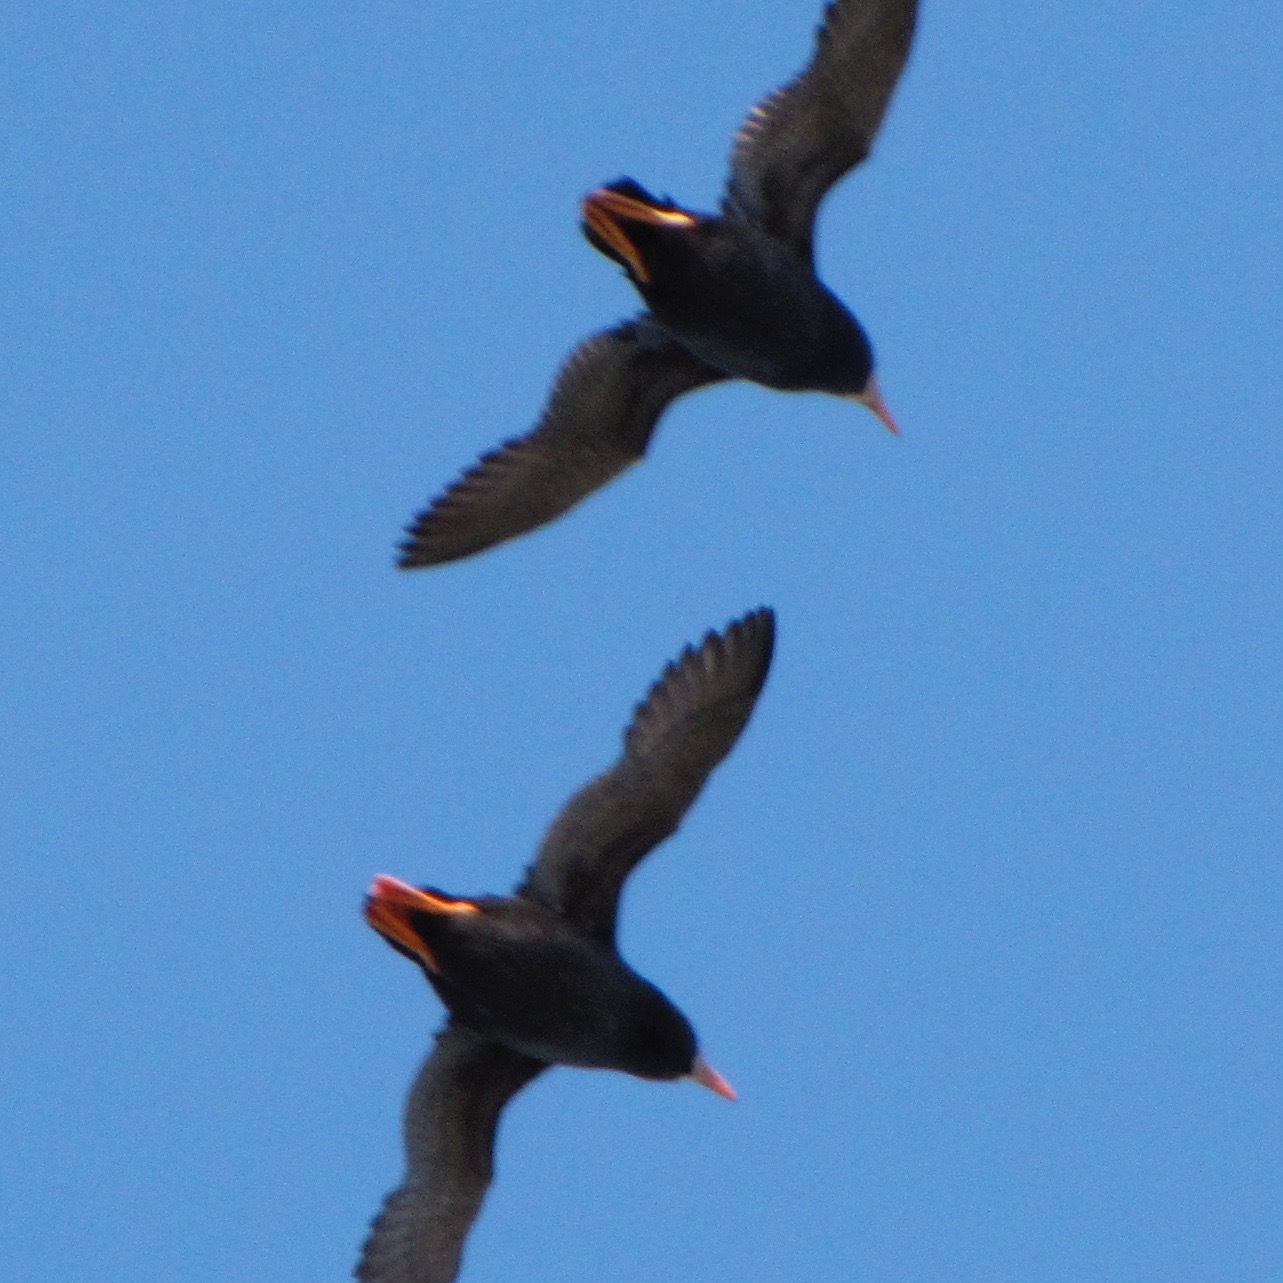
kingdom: Animalia
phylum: Chordata
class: Aves
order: Charadriiformes
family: Alcidae
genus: Fratercula
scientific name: Fratercula cirrhata
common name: Tufted puffin
